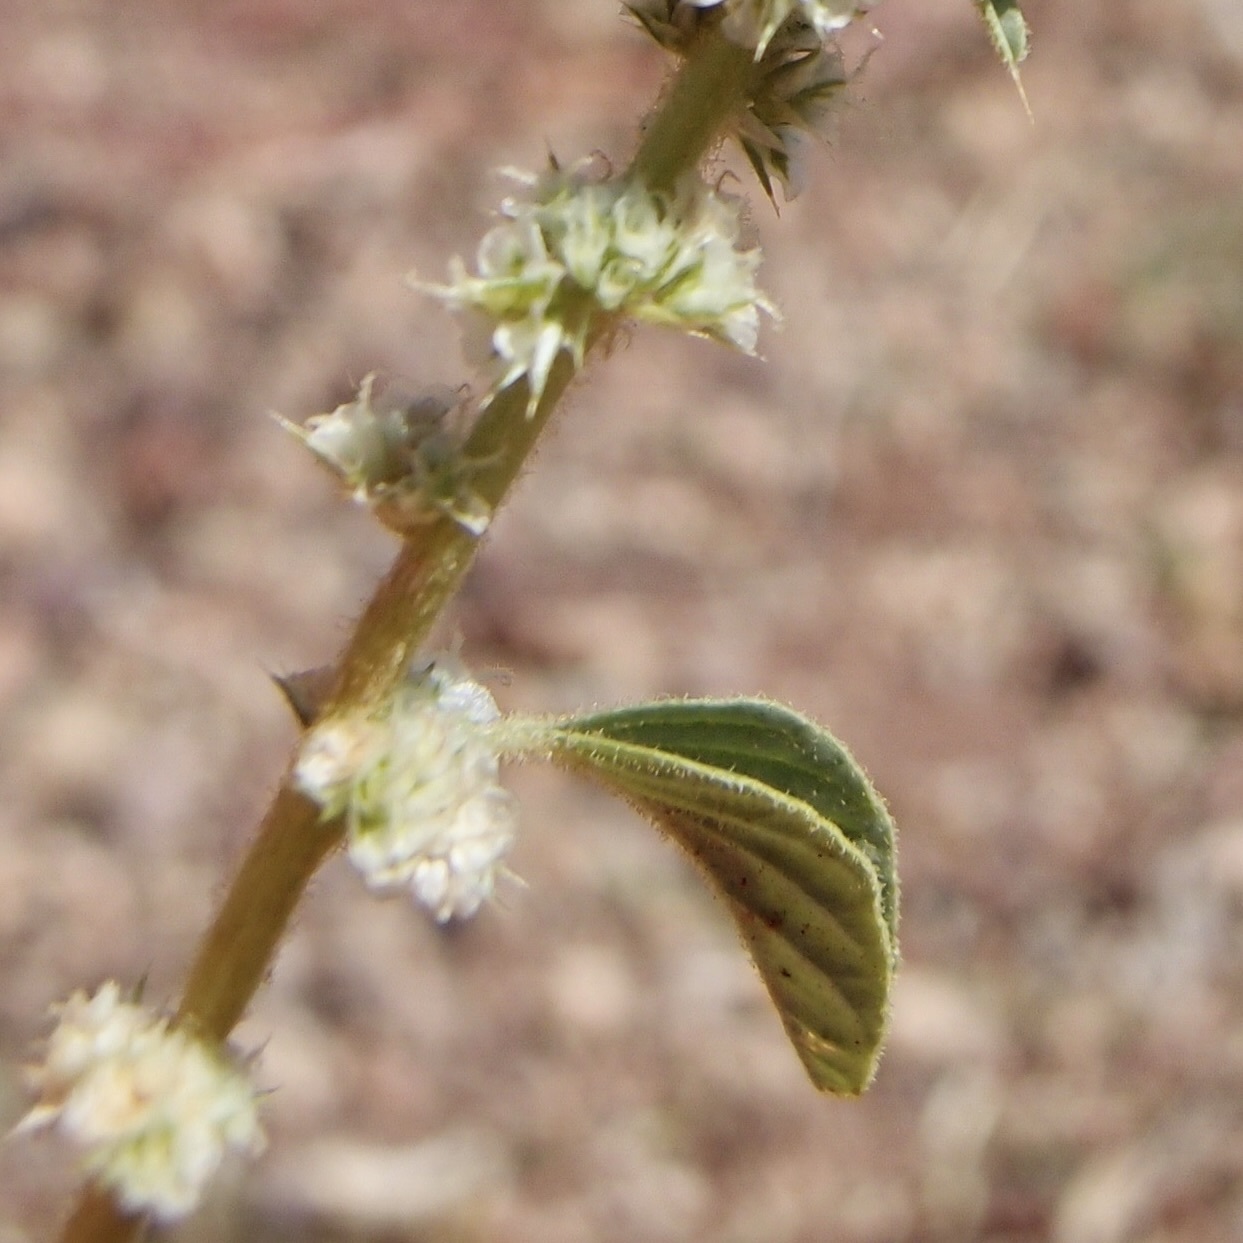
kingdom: Plantae
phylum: Tracheophyta
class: Magnoliopsida
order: Caryophyllales
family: Amaranthaceae
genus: Amaranthus
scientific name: Amaranthus watsonii
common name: Watson's amaranth
